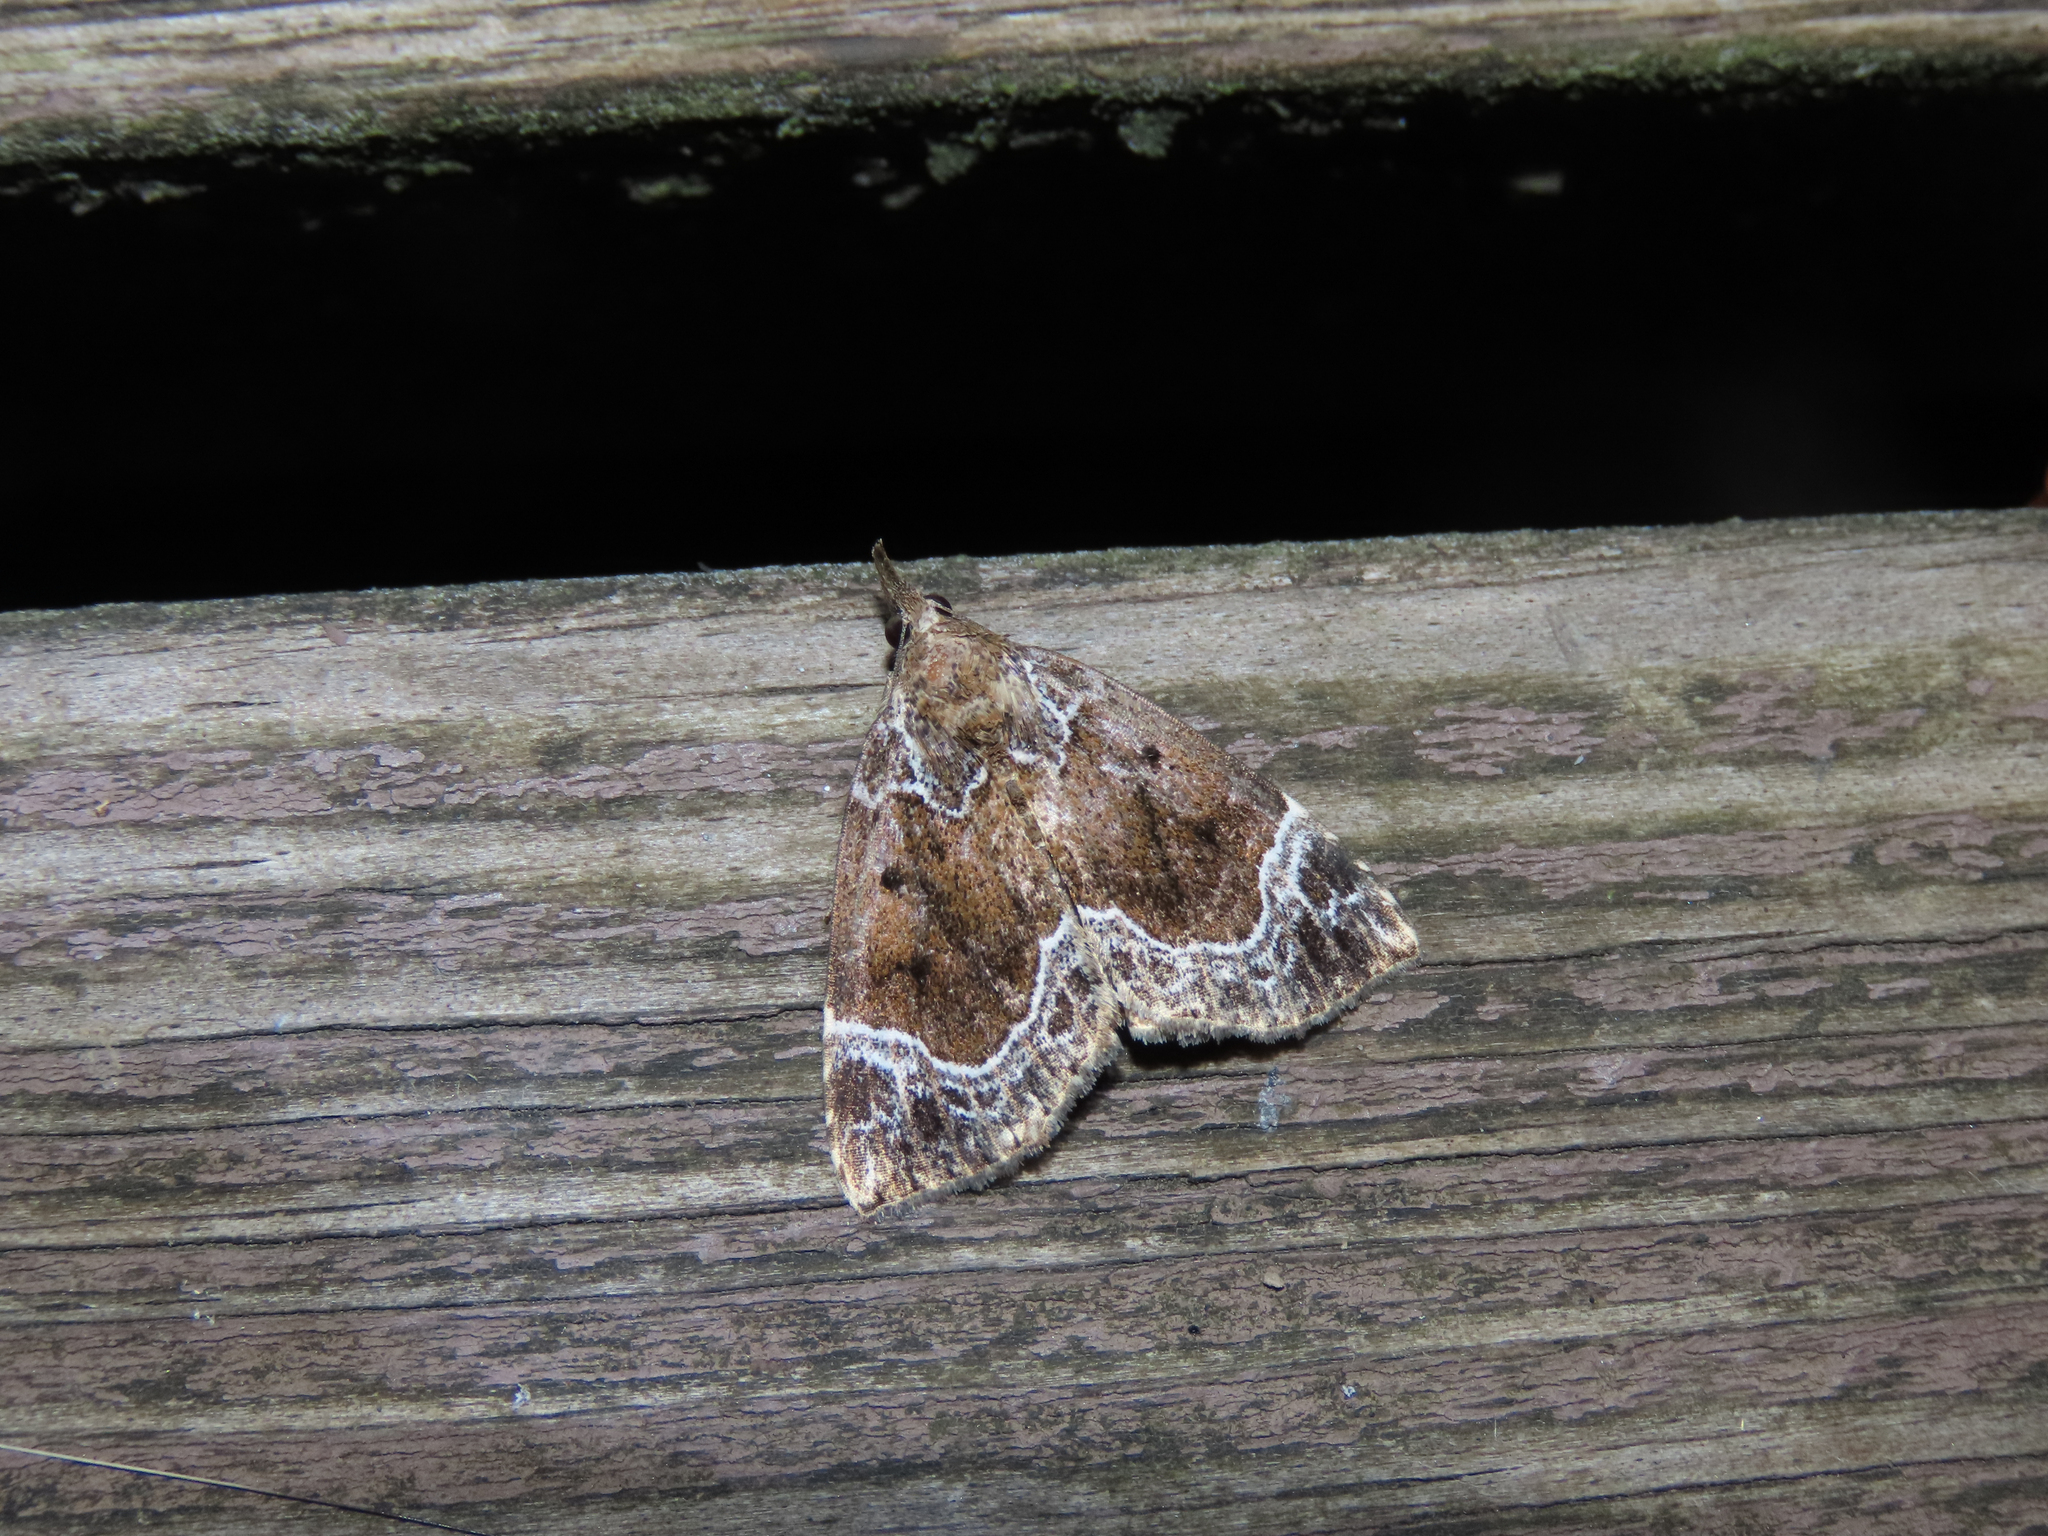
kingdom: Animalia
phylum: Arthropoda
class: Insecta
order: Lepidoptera
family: Erebidae
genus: Hypena
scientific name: Hypena abalienalis
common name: White-lined snout
